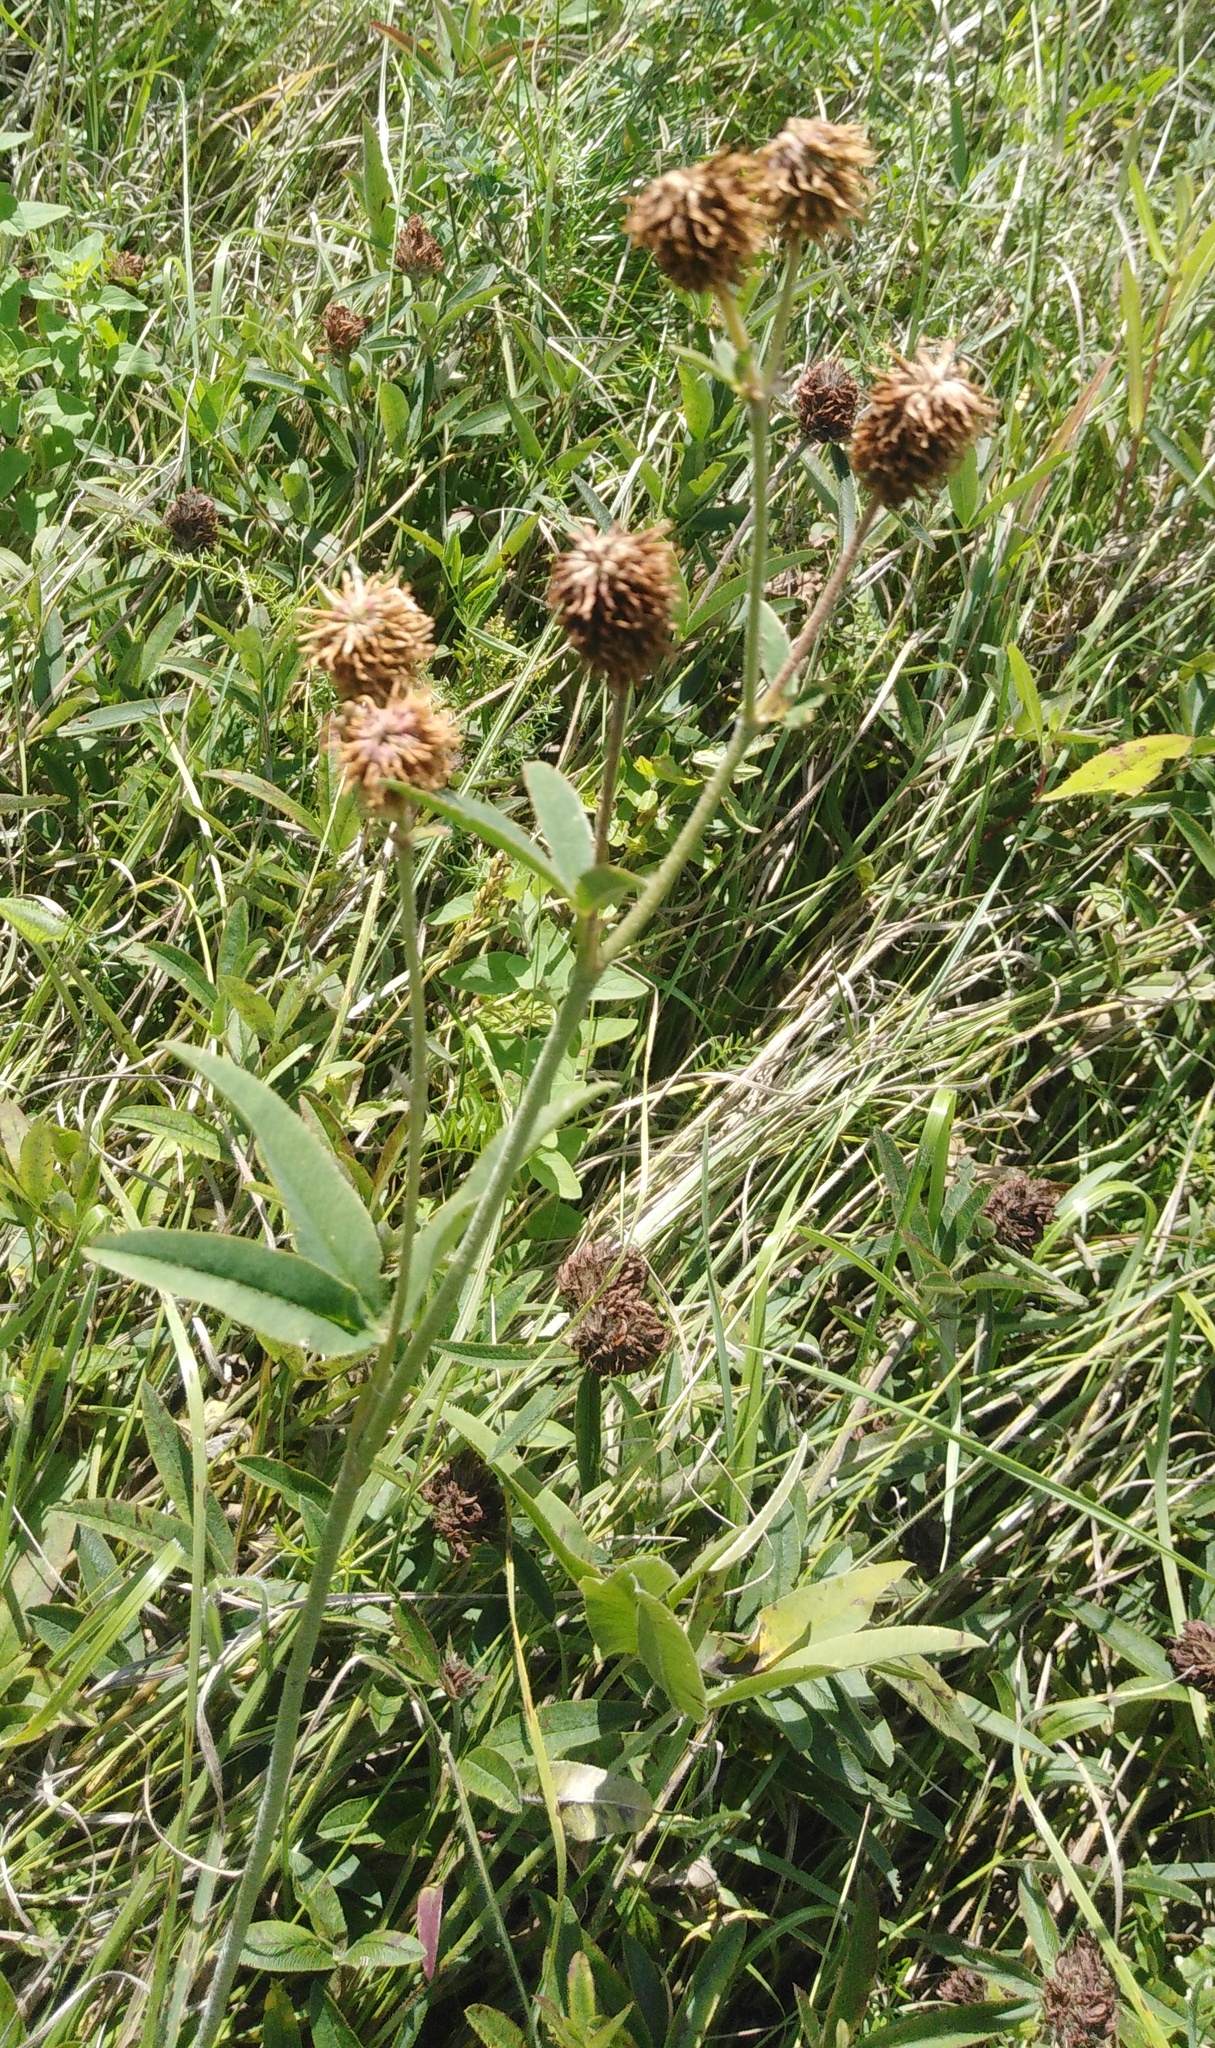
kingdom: Plantae
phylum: Tracheophyta
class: Magnoliopsida
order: Fabales
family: Fabaceae
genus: Trifolium
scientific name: Trifolium montanum
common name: Mountain clover
